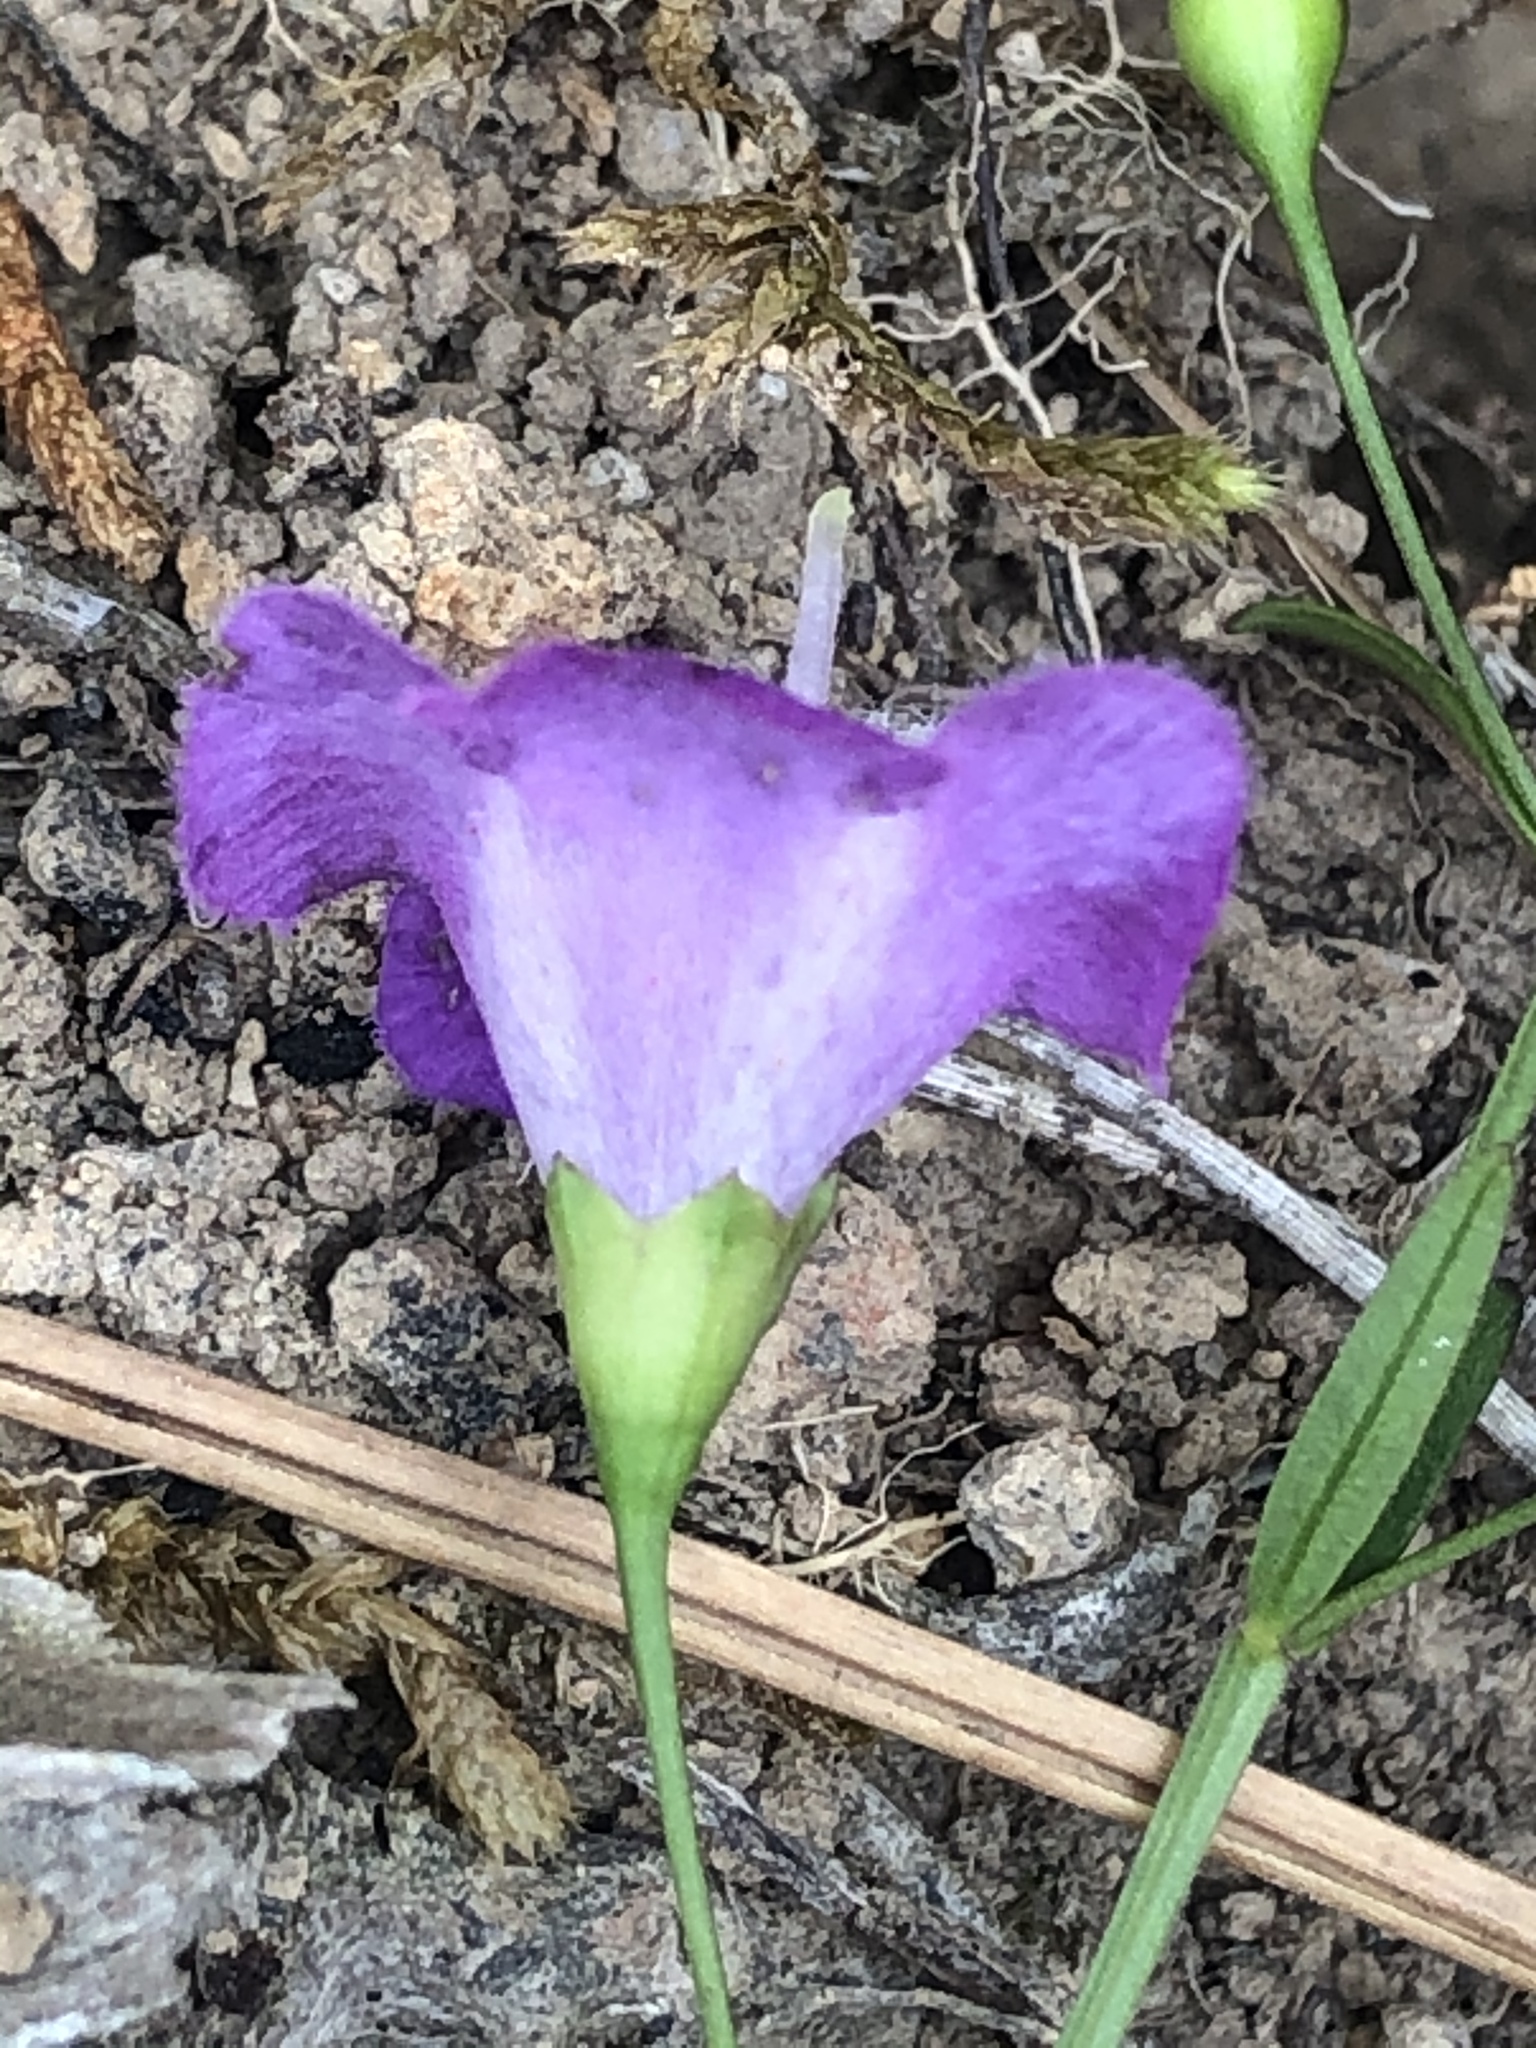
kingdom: Plantae
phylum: Tracheophyta
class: Magnoliopsida
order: Lamiales
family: Orobanchaceae
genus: Agalinis
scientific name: Agalinis tenuifolia
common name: Slender agalinis
